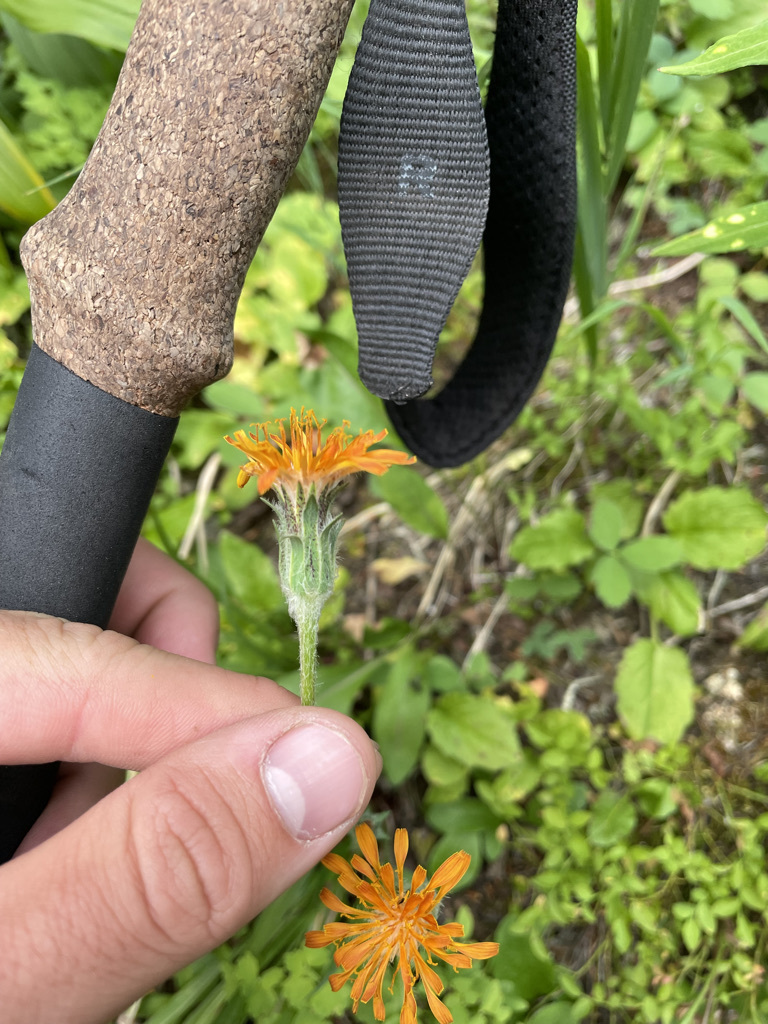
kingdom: Plantae
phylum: Tracheophyta
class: Magnoliopsida
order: Asterales
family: Asteraceae
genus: Agoseris
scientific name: Agoseris aurantiaca
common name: Mountain agoseris
